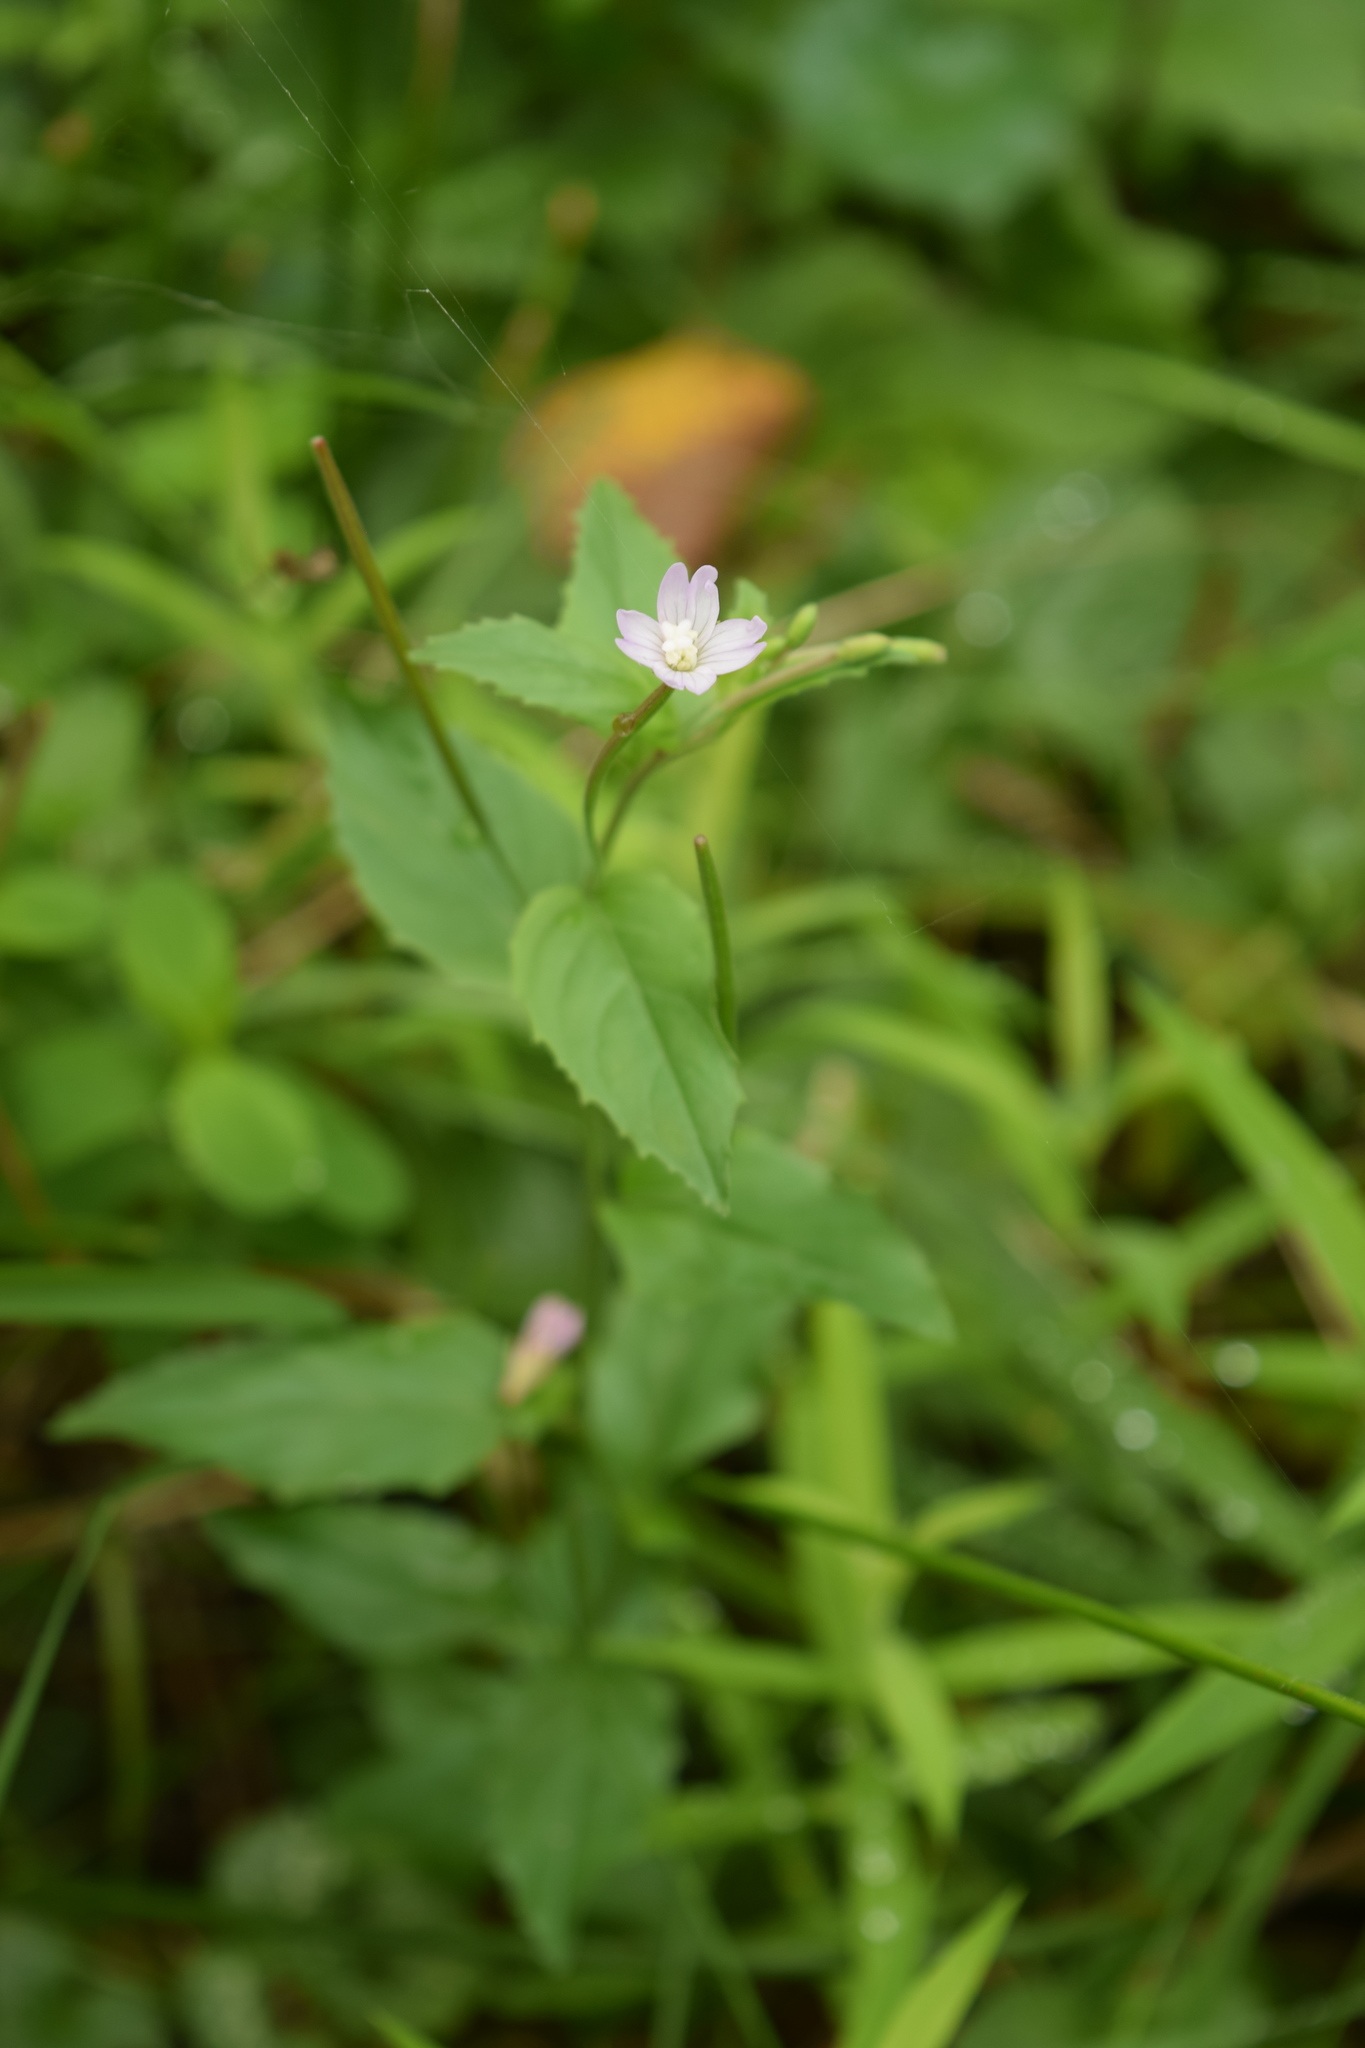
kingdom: Plantae
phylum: Tracheophyta
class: Magnoliopsida
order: Myrtales
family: Onagraceae
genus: Epilobium
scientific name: Epilobium montanum
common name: Broad-leaved willowherb
